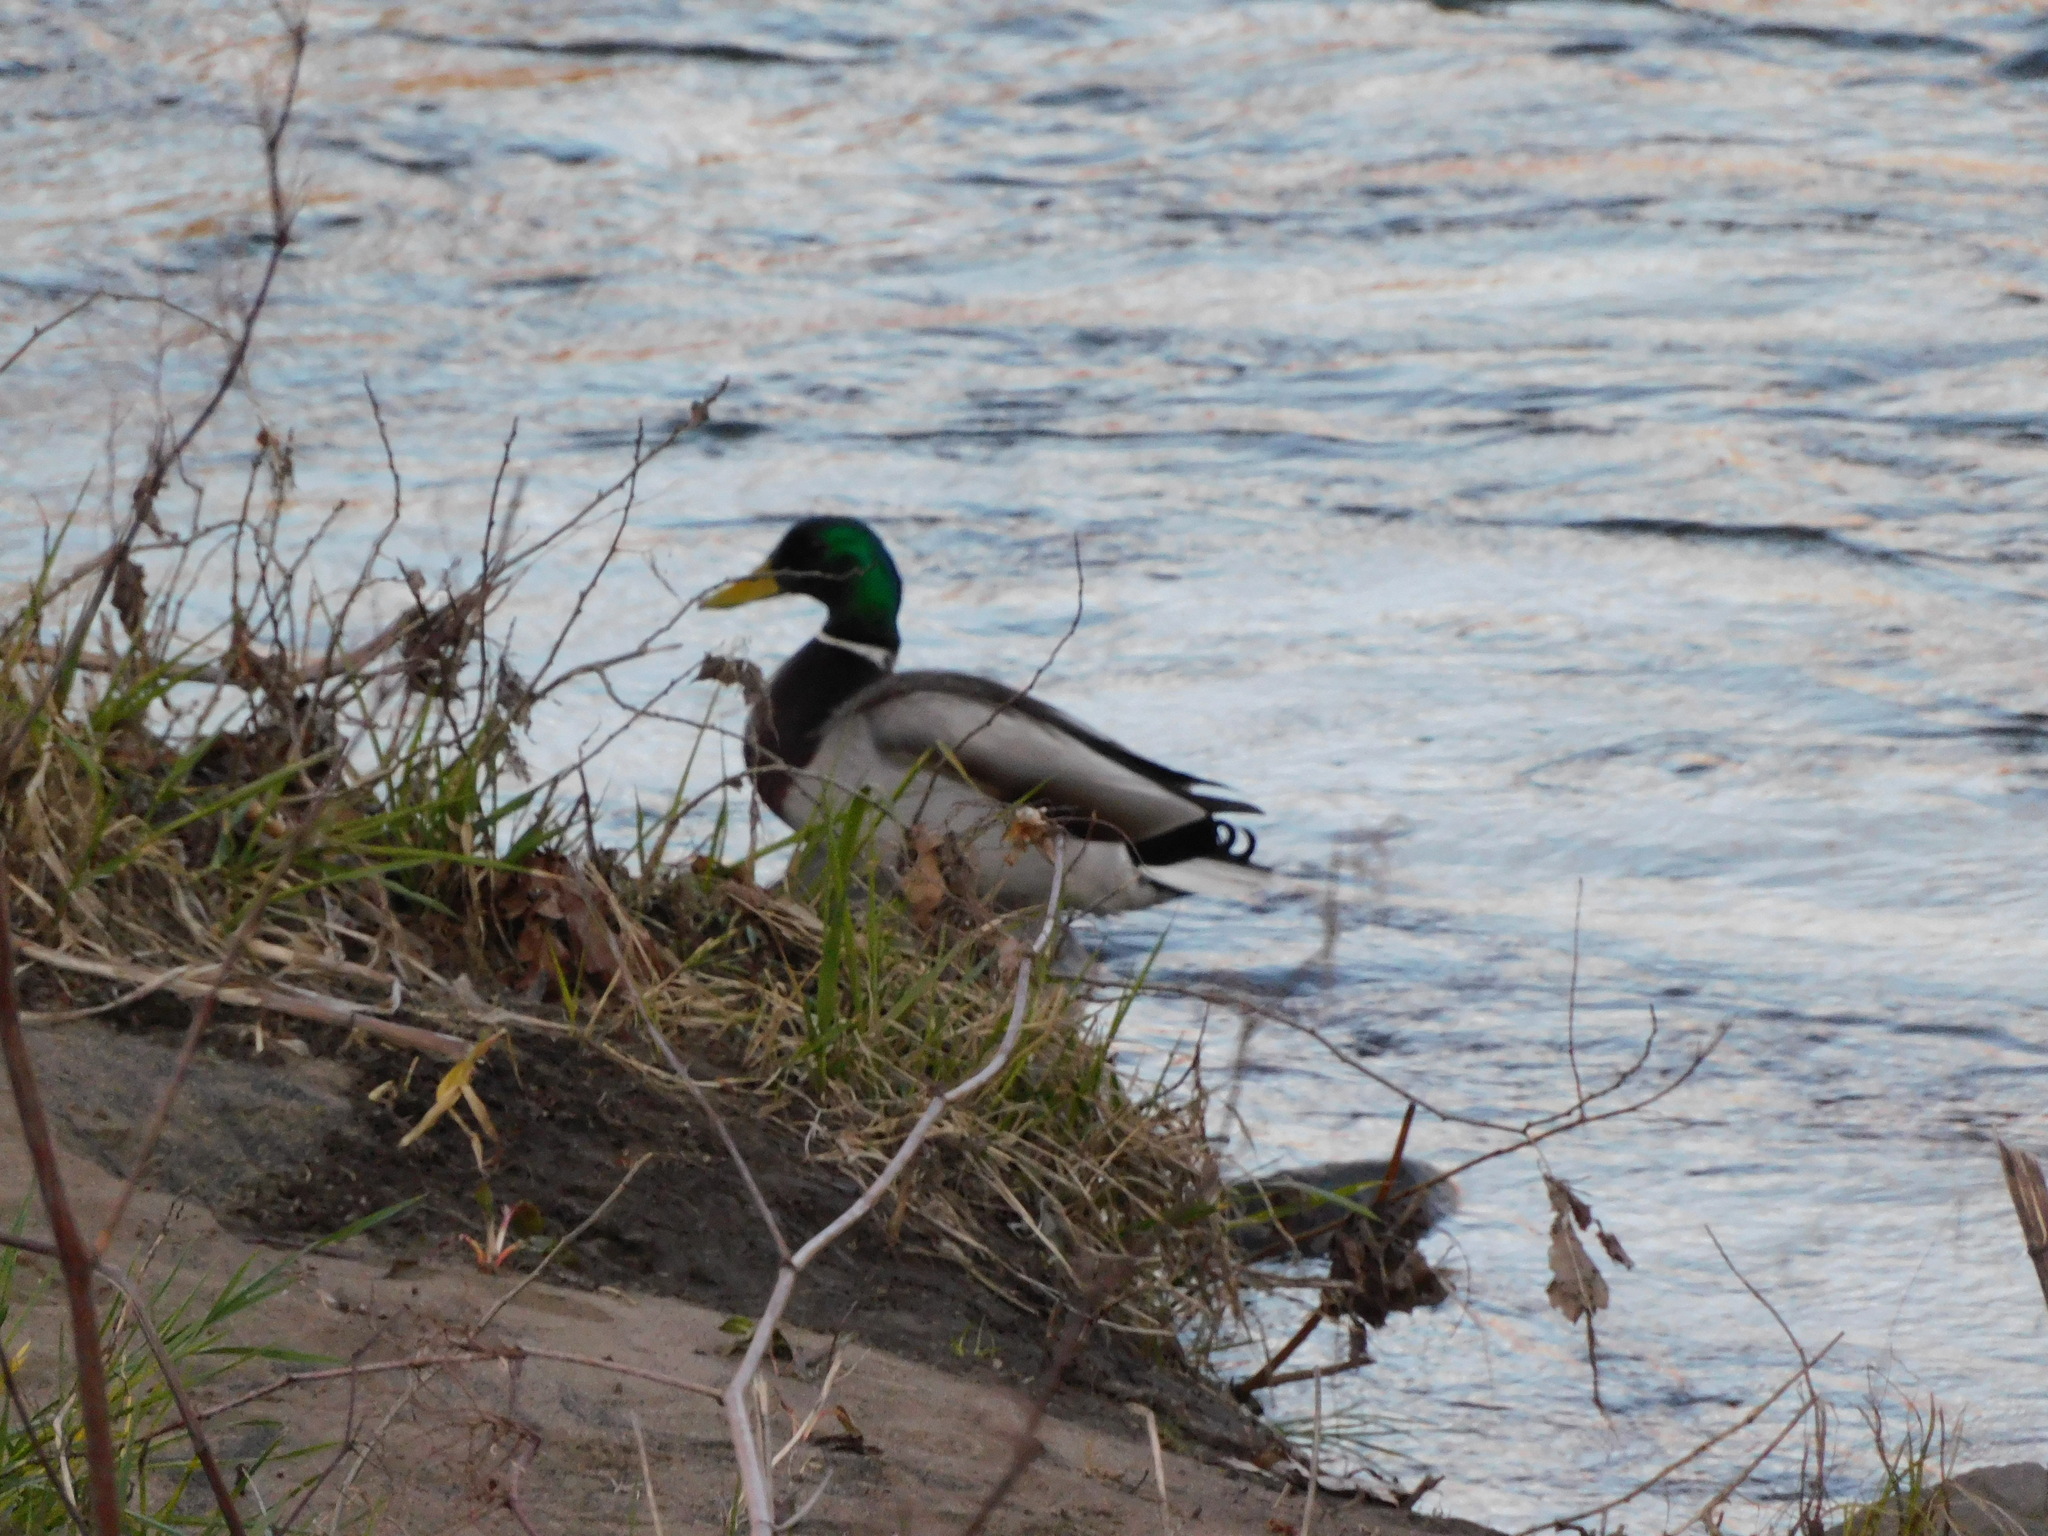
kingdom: Animalia
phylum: Chordata
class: Aves
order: Anseriformes
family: Anatidae
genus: Anas
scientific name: Anas platyrhynchos
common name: Mallard
